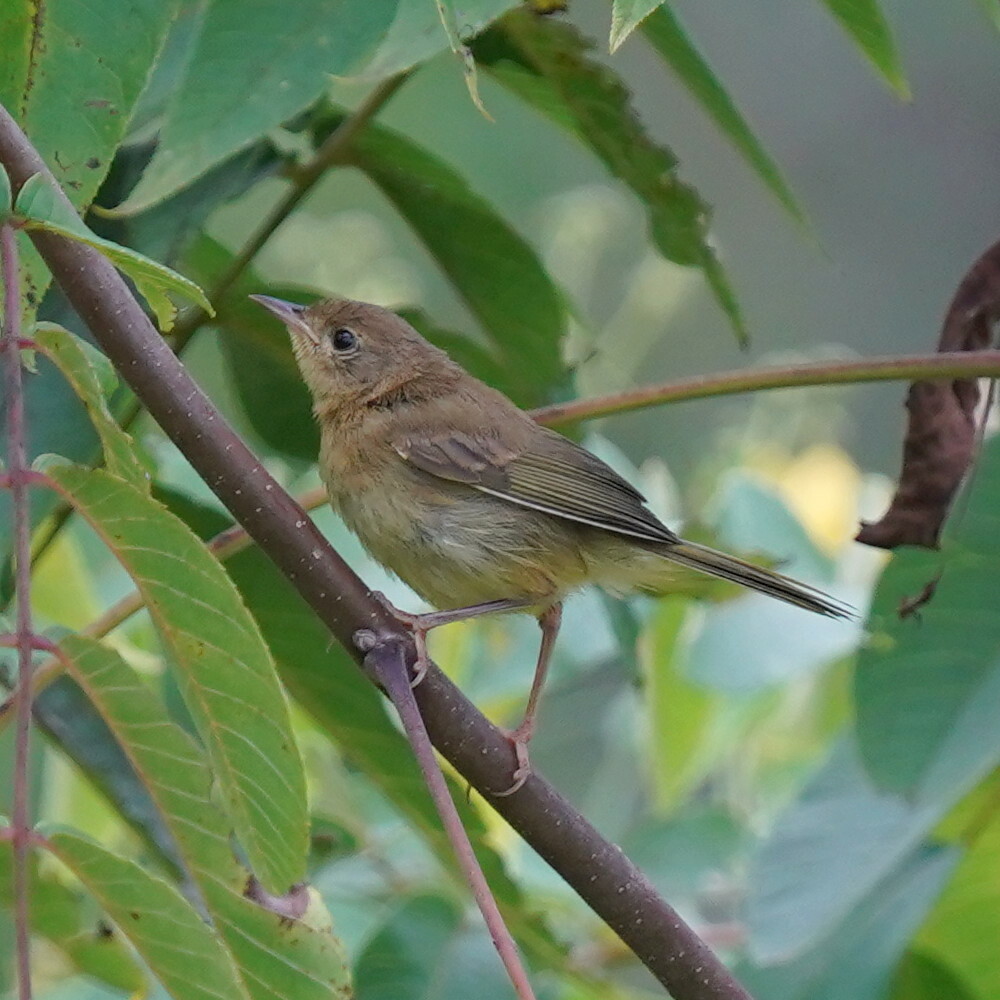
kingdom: Animalia
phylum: Chordata
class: Aves
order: Passeriformes
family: Parulidae
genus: Geothlypis
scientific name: Geothlypis trichas
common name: Common yellowthroat
